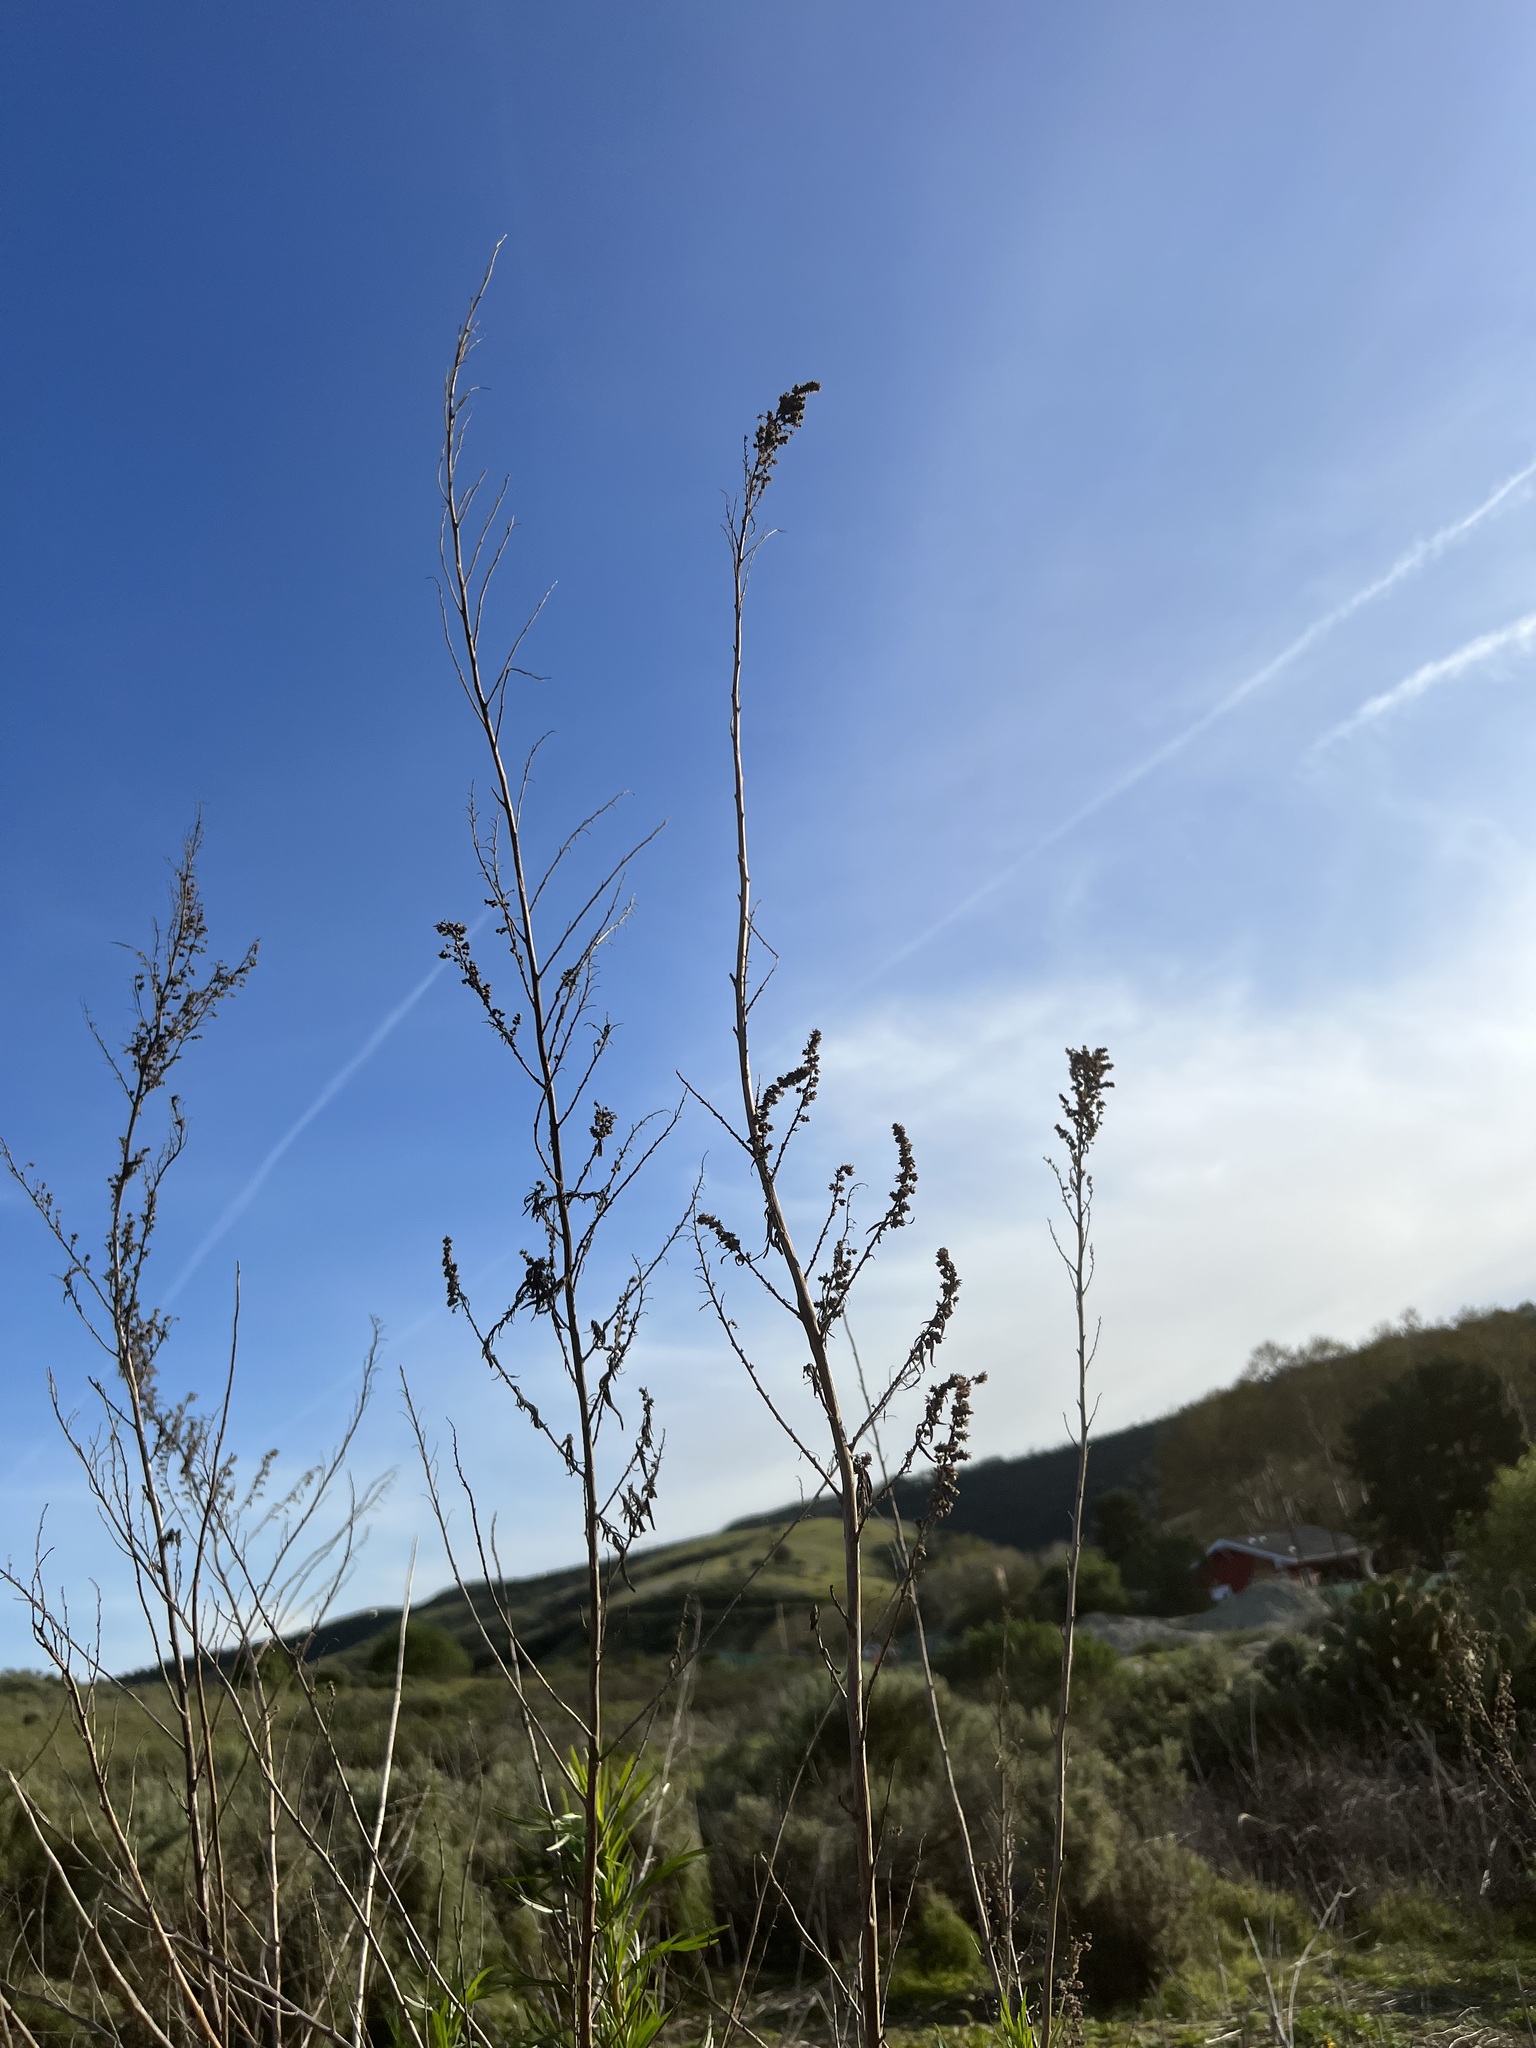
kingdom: Plantae
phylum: Tracheophyta
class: Magnoliopsida
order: Asterales
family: Asteraceae
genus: Artemisia
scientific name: Artemisia dracunculus
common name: Tarragon
